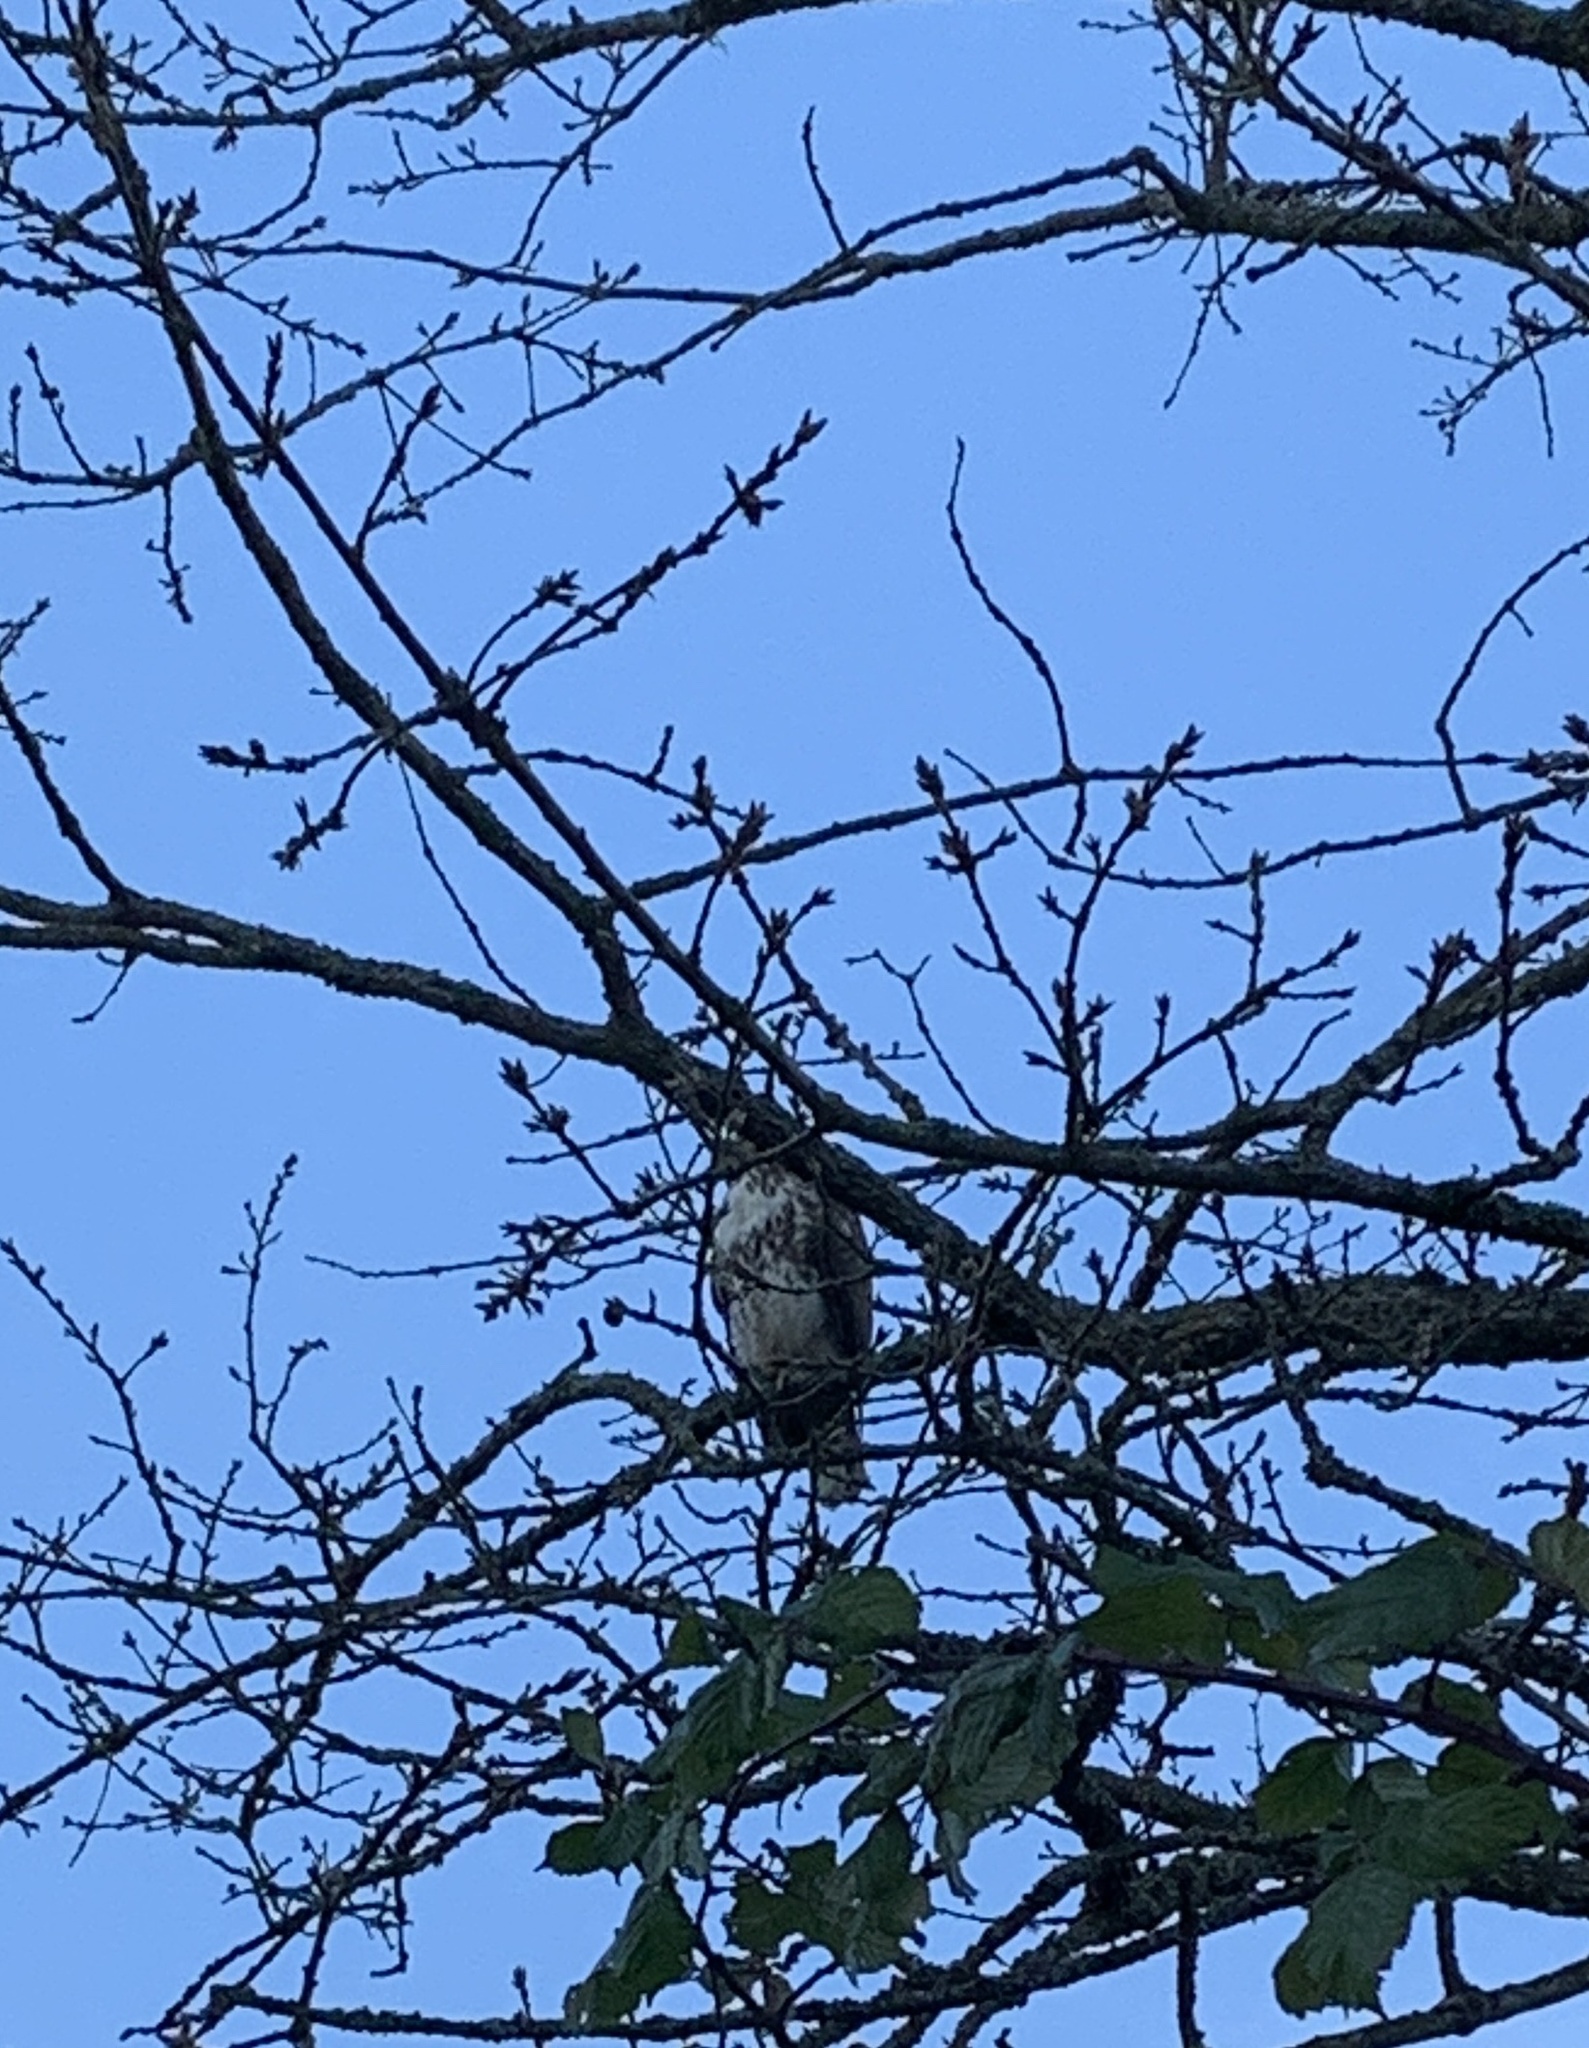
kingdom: Animalia
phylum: Chordata
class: Aves
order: Accipitriformes
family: Accipitridae
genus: Buteo
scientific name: Buteo jamaicensis
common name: Red-tailed hawk
